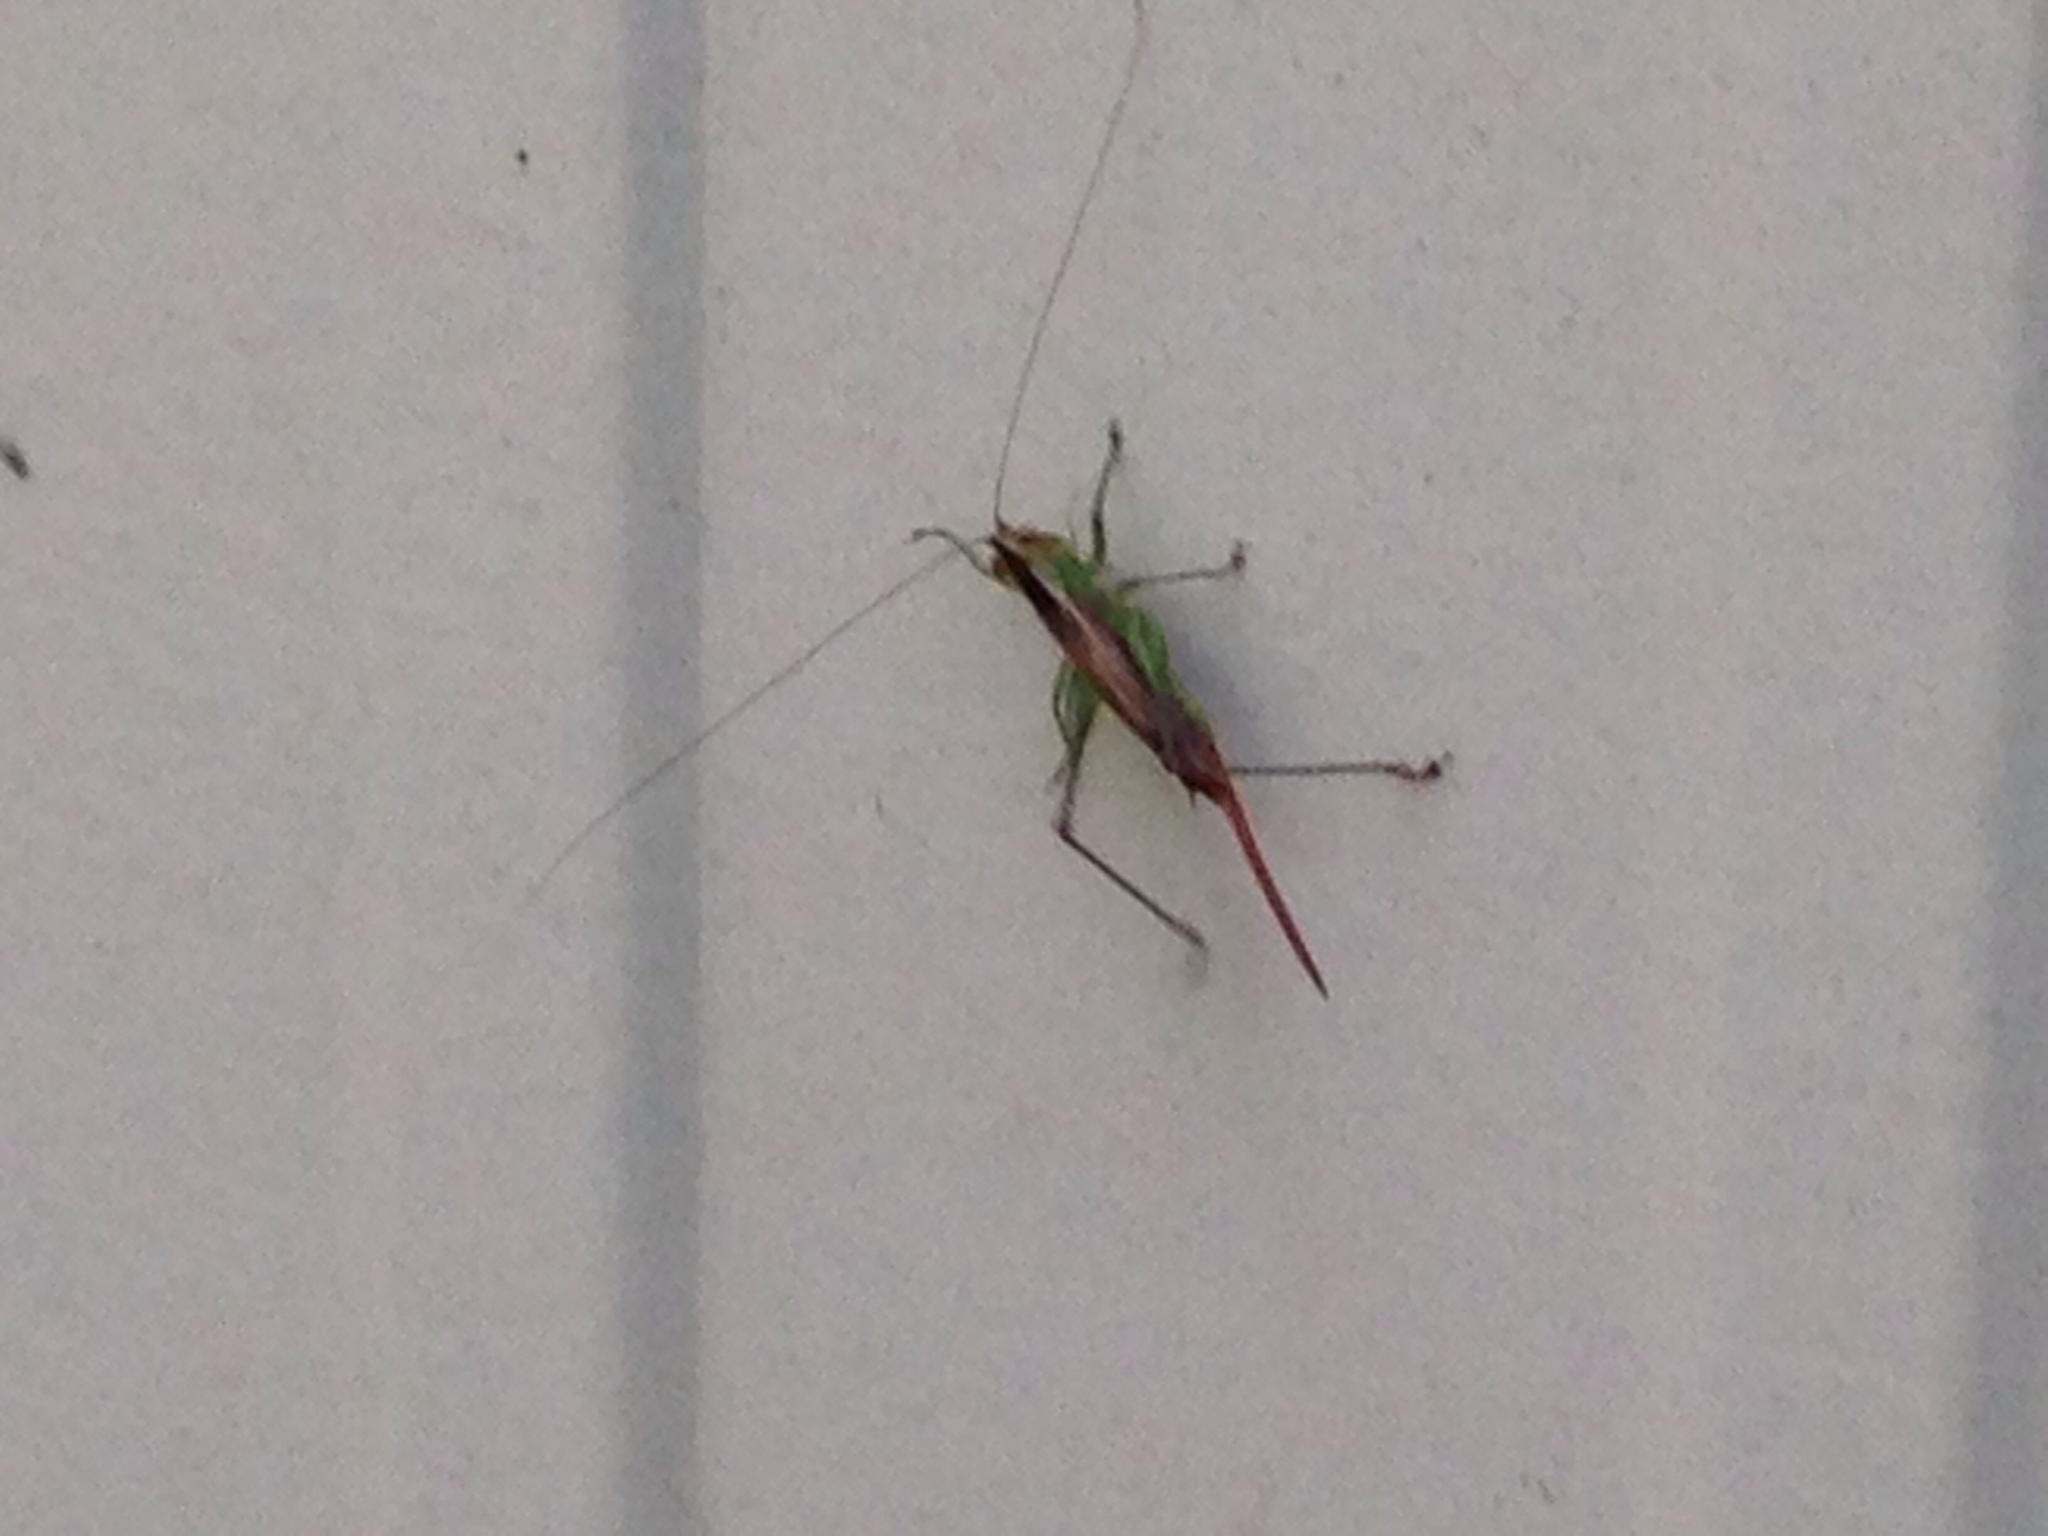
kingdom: Animalia
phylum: Arthropoda
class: Insecta
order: Orthoptera
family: Tettigoniidae
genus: Conocephalus
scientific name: Conocephalus brevipennis
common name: Short-winged meadow katydid
